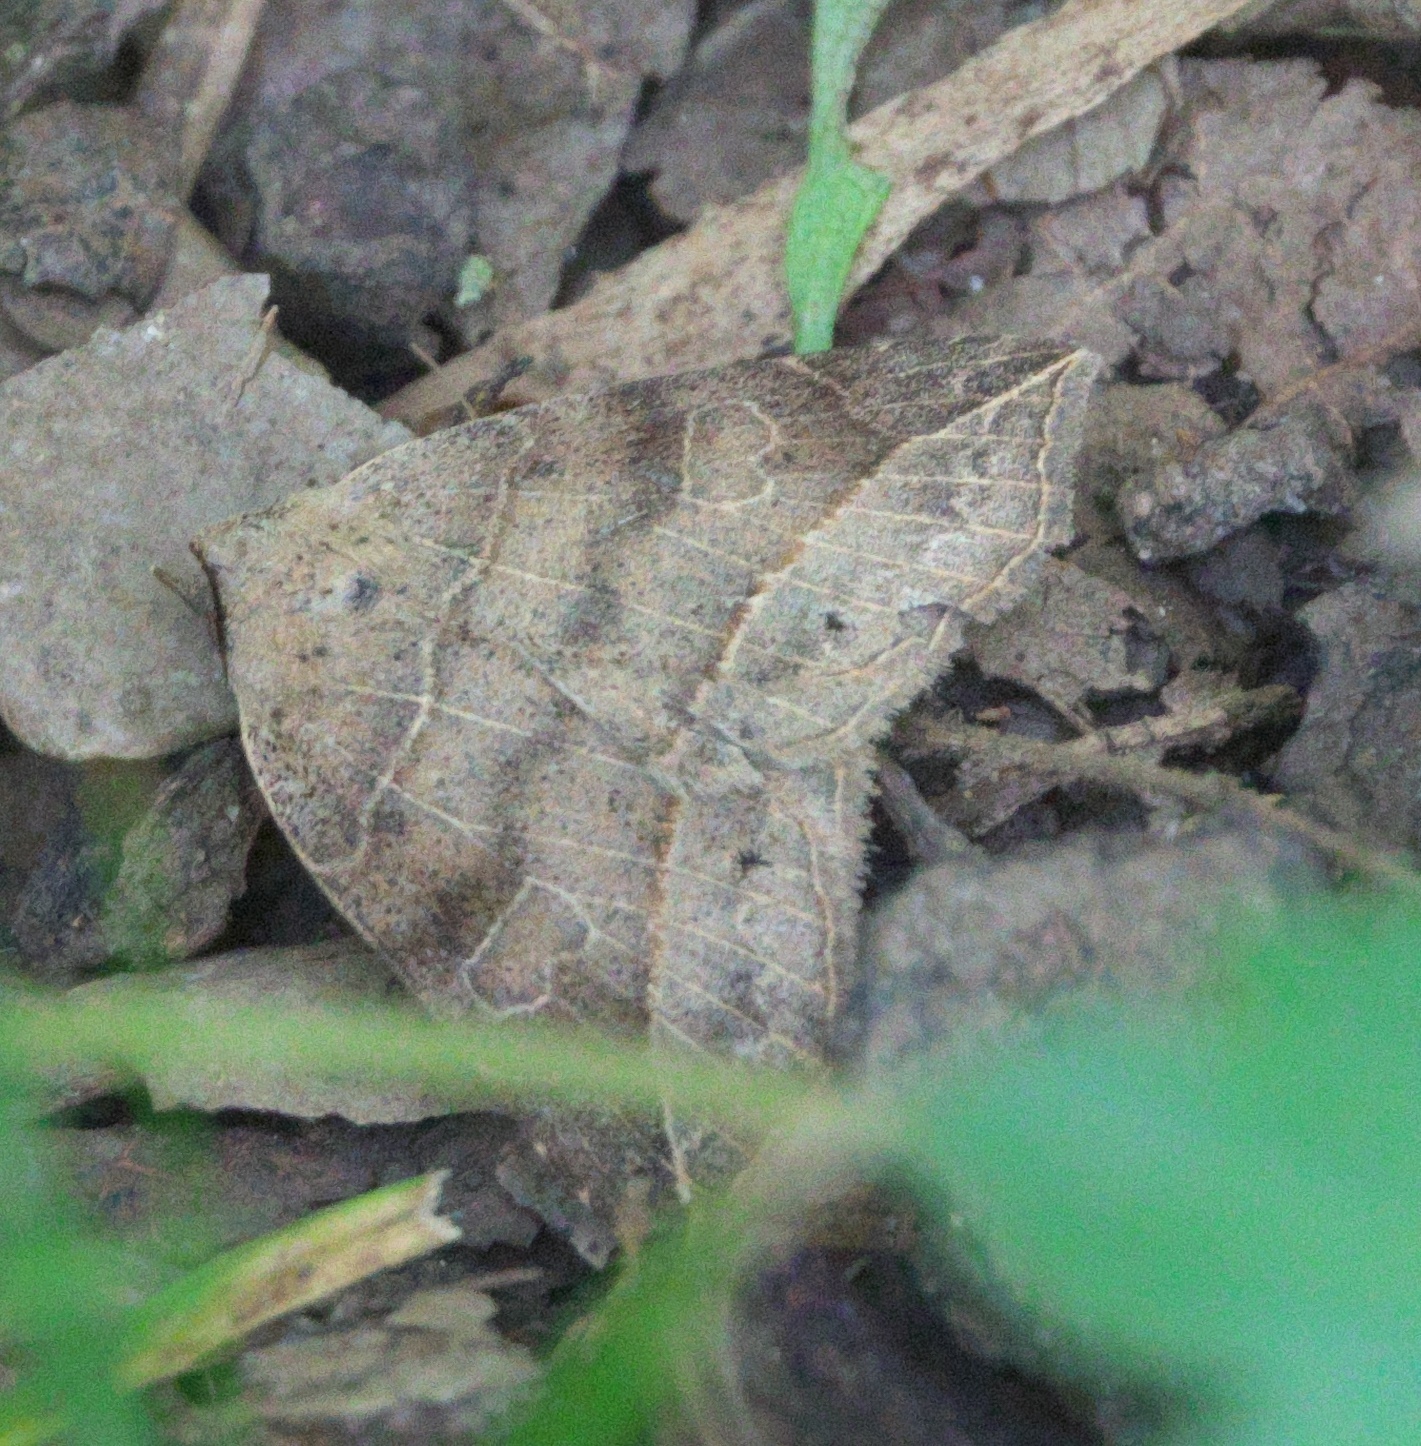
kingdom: Animalia
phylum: Arthropoda
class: Insecta
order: Lepidoptera
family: Erebidae
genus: Isogona
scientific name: Isogona tenuis
